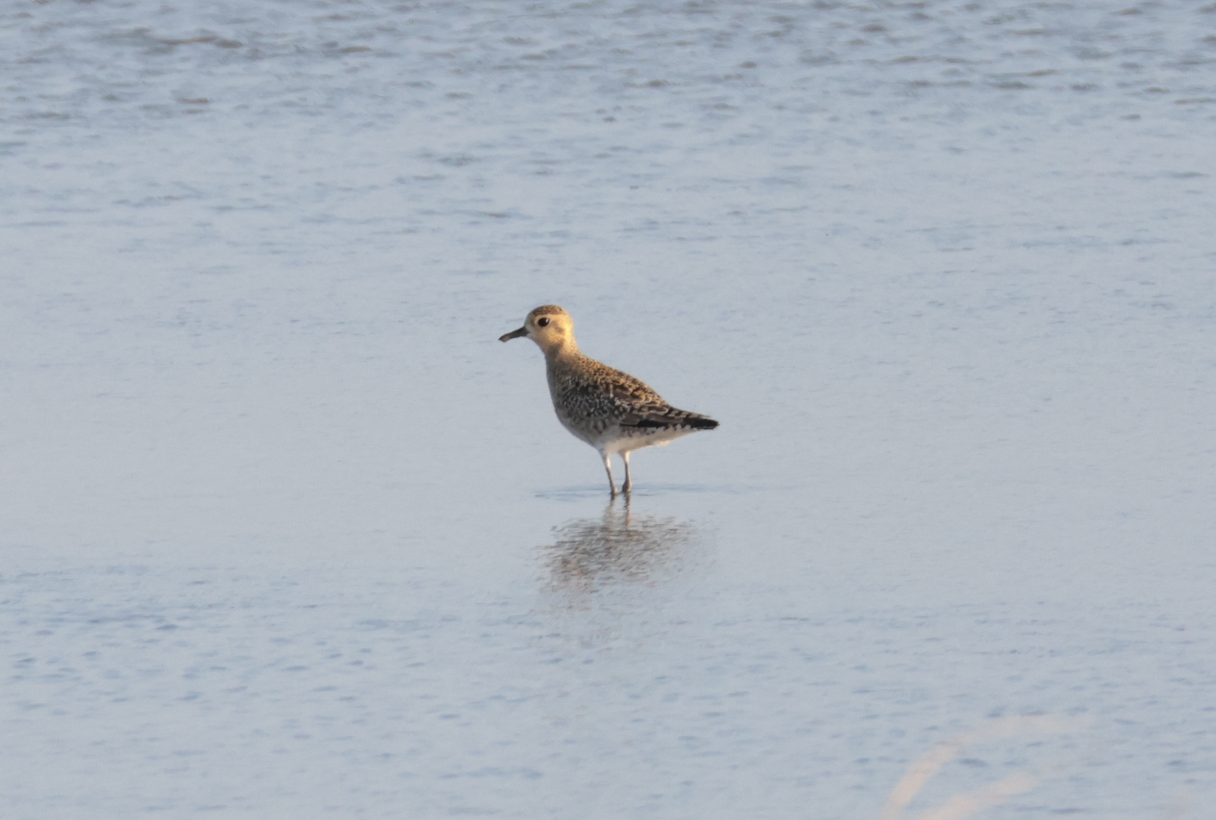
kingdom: Animalia
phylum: Chordata
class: Aves
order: Charadriiformes
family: Charadriidae
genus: Pluvialis
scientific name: Pluvialis fulva
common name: Pacific golden plover
